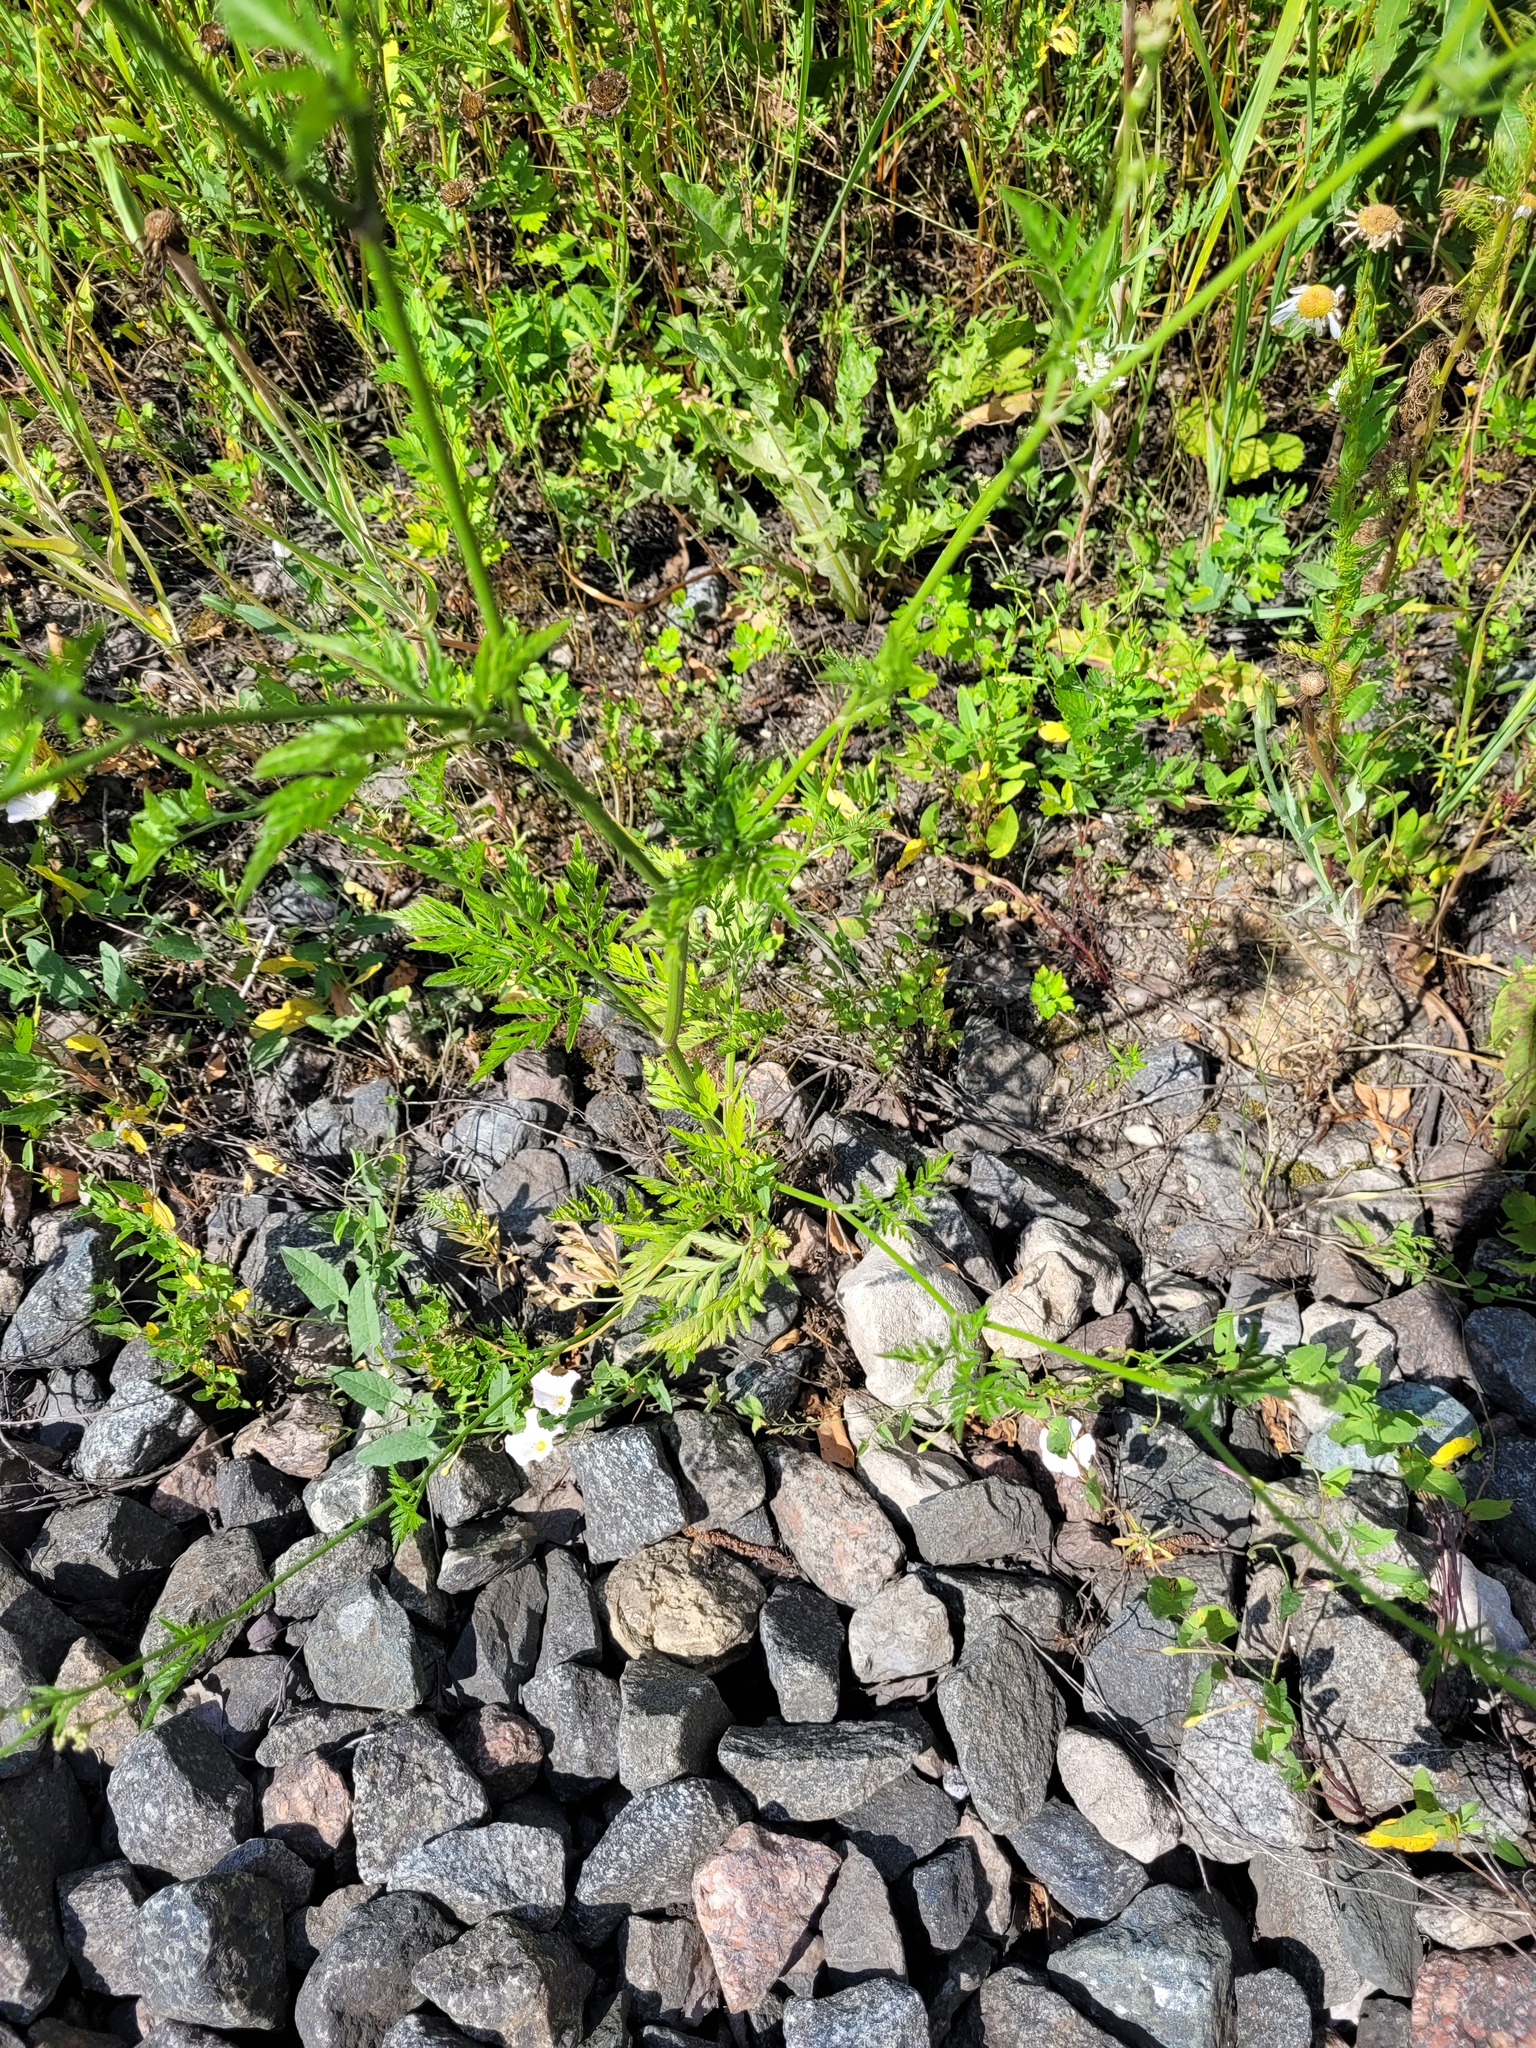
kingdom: Plantae
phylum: Tracheophyta
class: Magnoliopsida
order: Apiales
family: Apiaceae
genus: Torilis
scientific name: Torilis japonica
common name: Upright hedge-parsley
